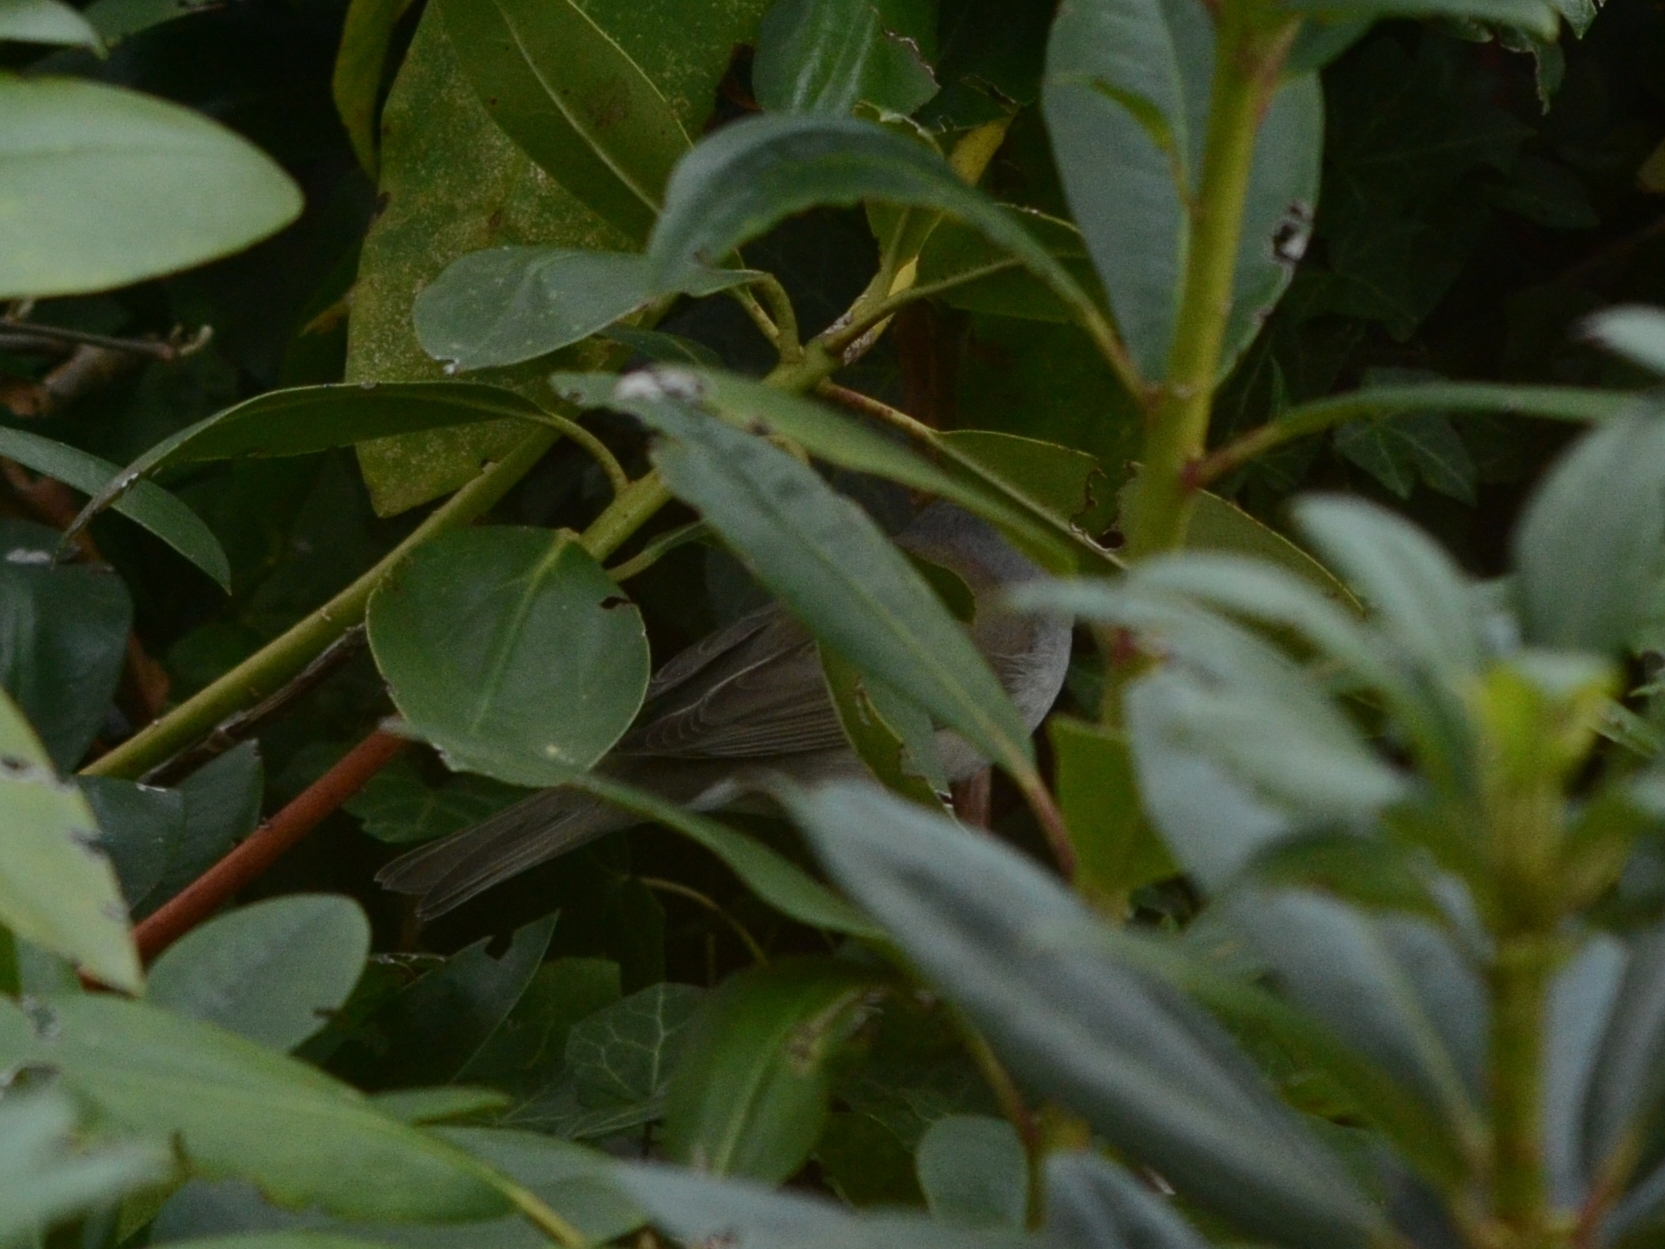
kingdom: Animalia
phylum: Chordata
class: Aves
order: Passeriformes
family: Sylviidae
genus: Sylvia
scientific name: Sylvia atricapilla
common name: Eurasian blackcap
